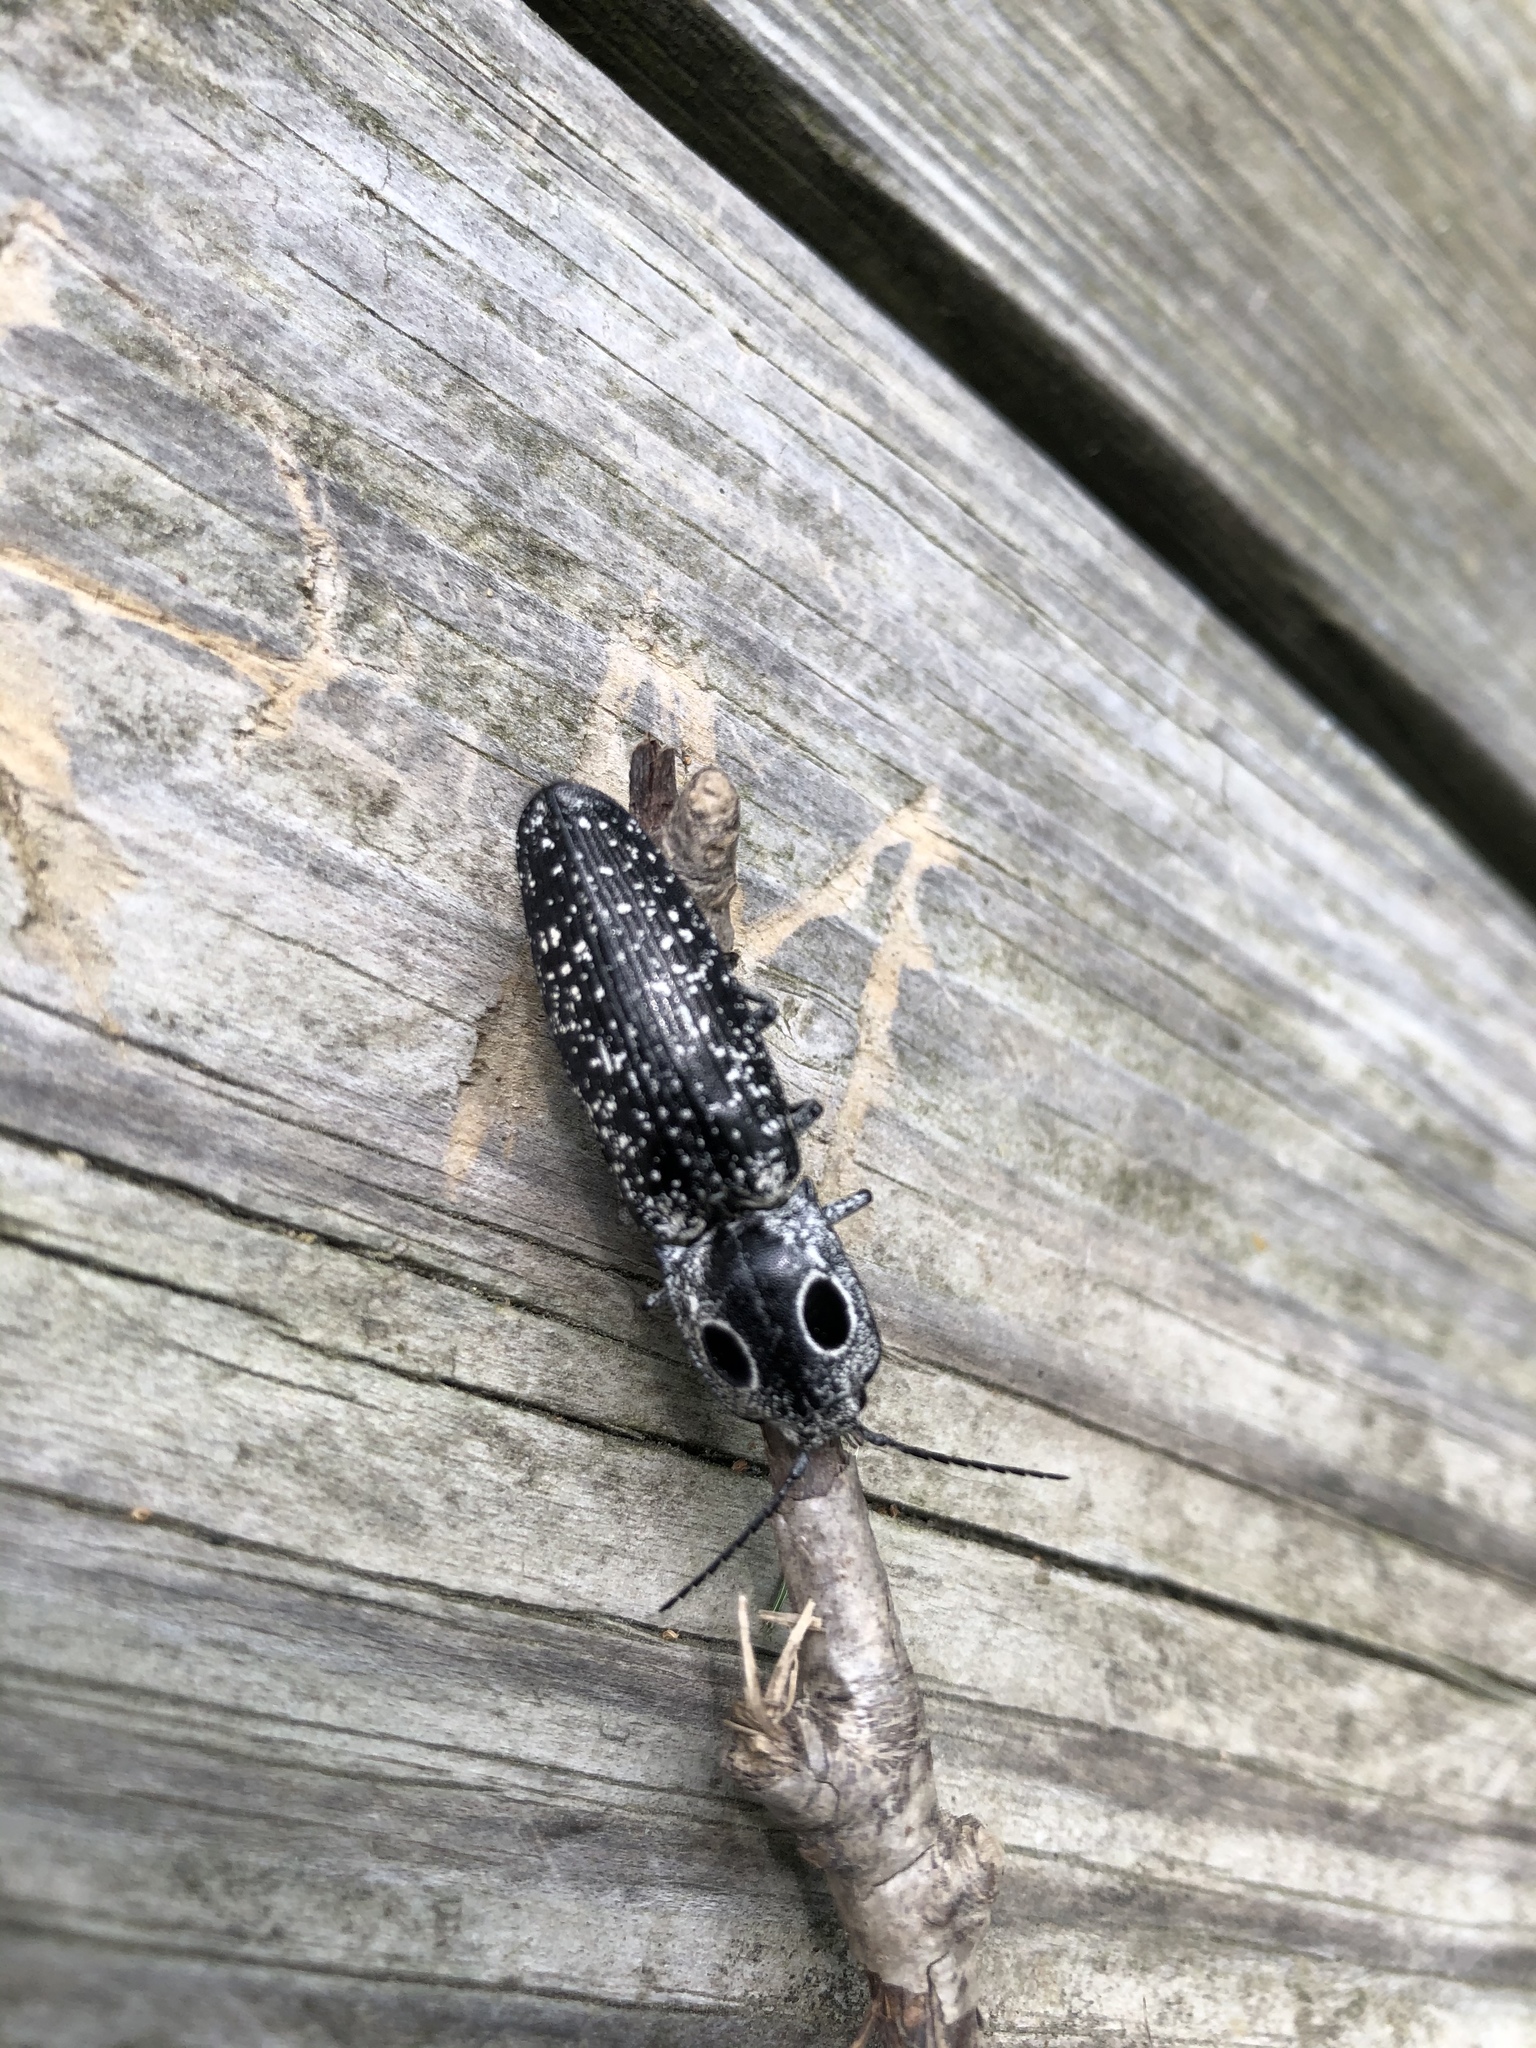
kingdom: Animalia
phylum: Arthropoda
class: Insecta
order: Coleoptera
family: Elateridae
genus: Alaus
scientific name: Alaus oculatus
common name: Eastern eyed click beetle
